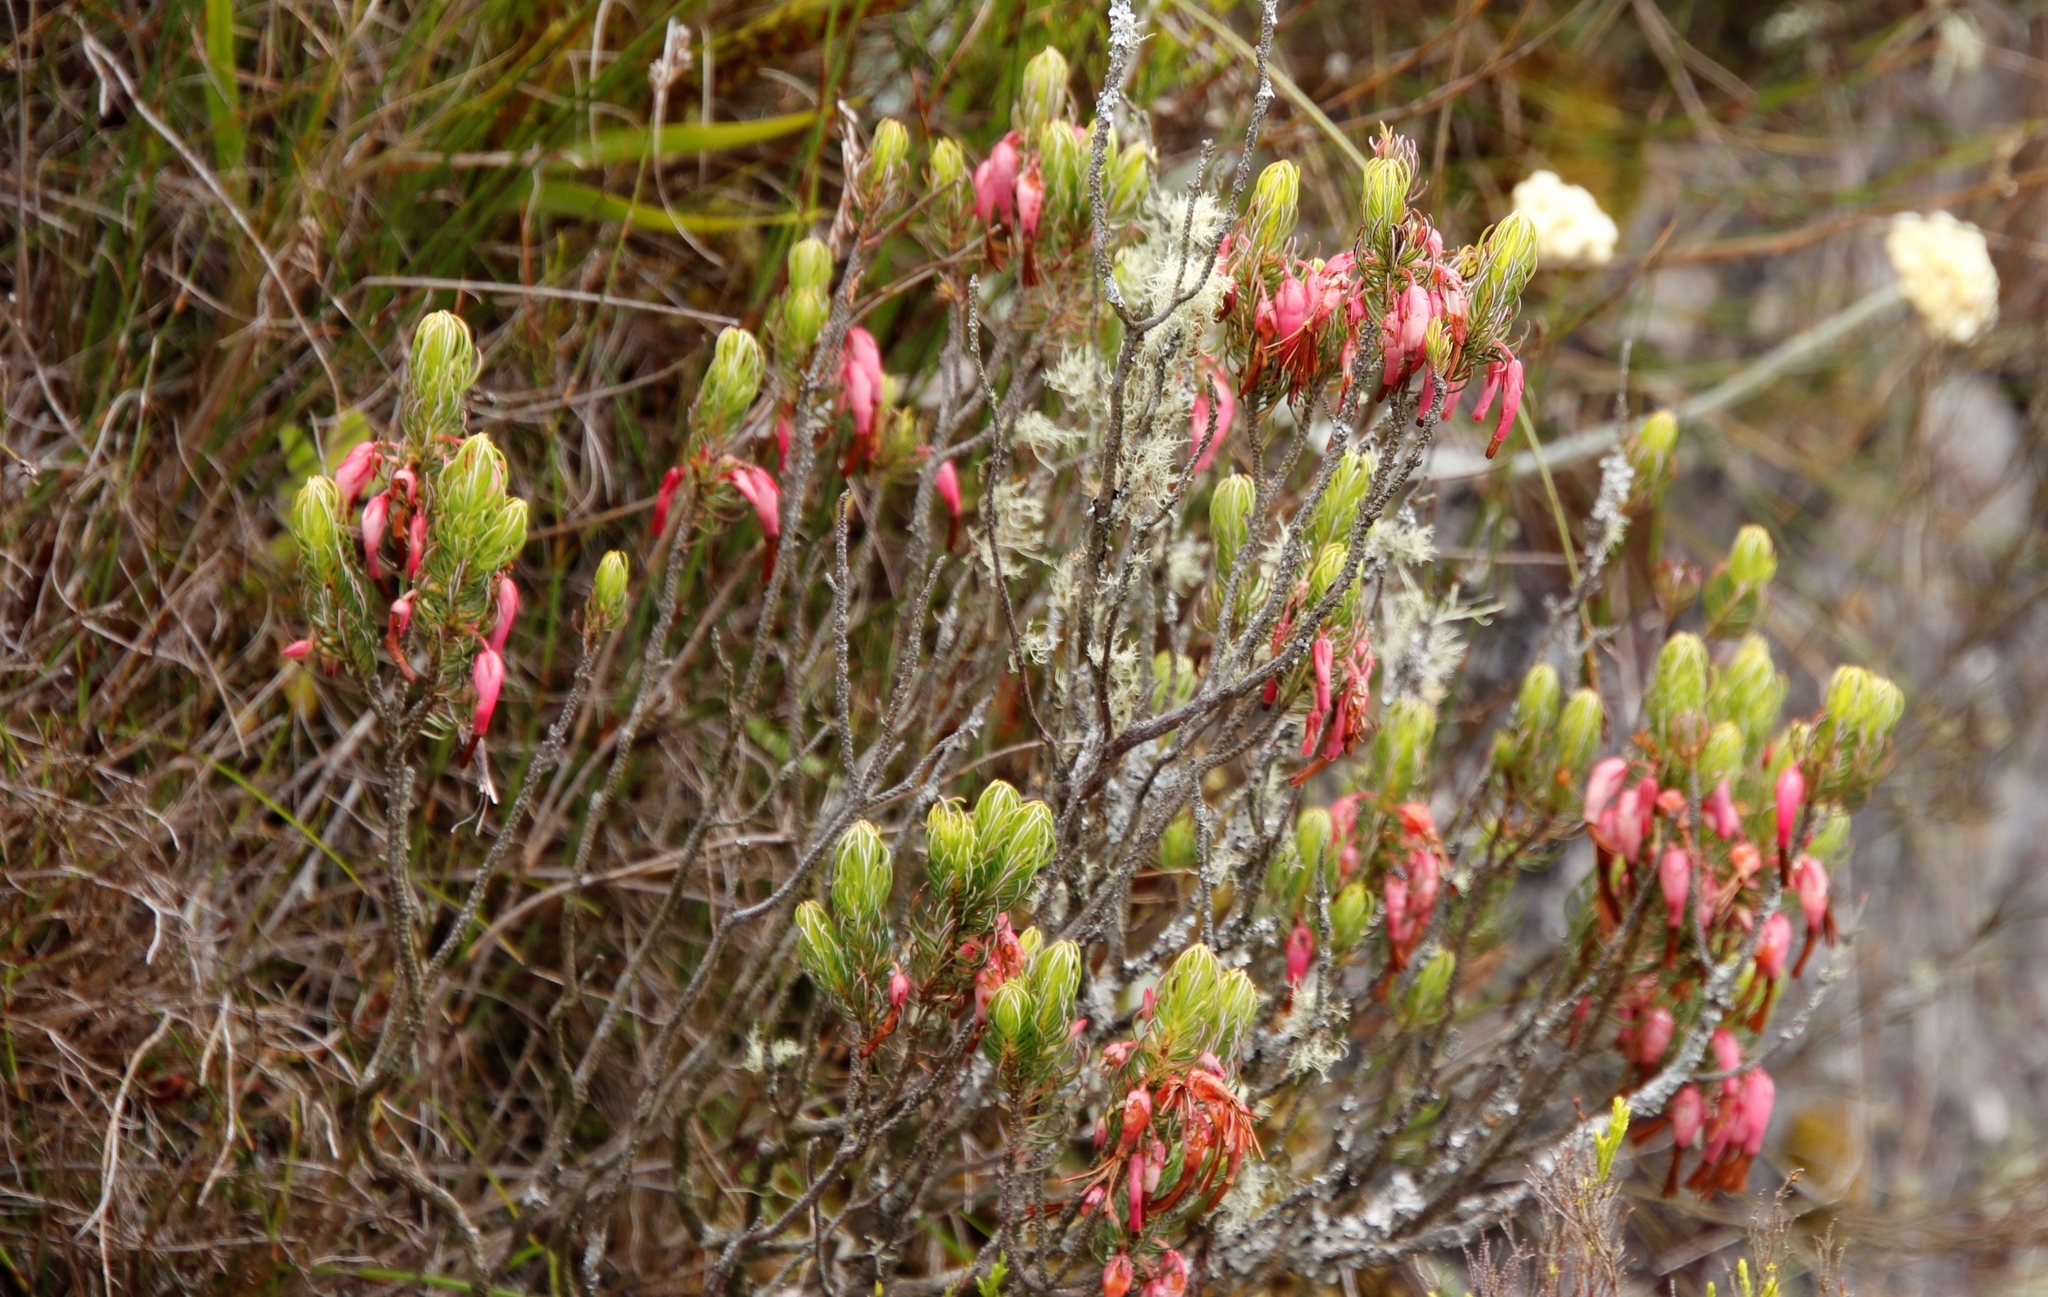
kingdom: Plantae
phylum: Tracheophyta
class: Magnoliopsida
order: Ericales
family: Ericaceae
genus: Erica
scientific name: Erica plukenetii
